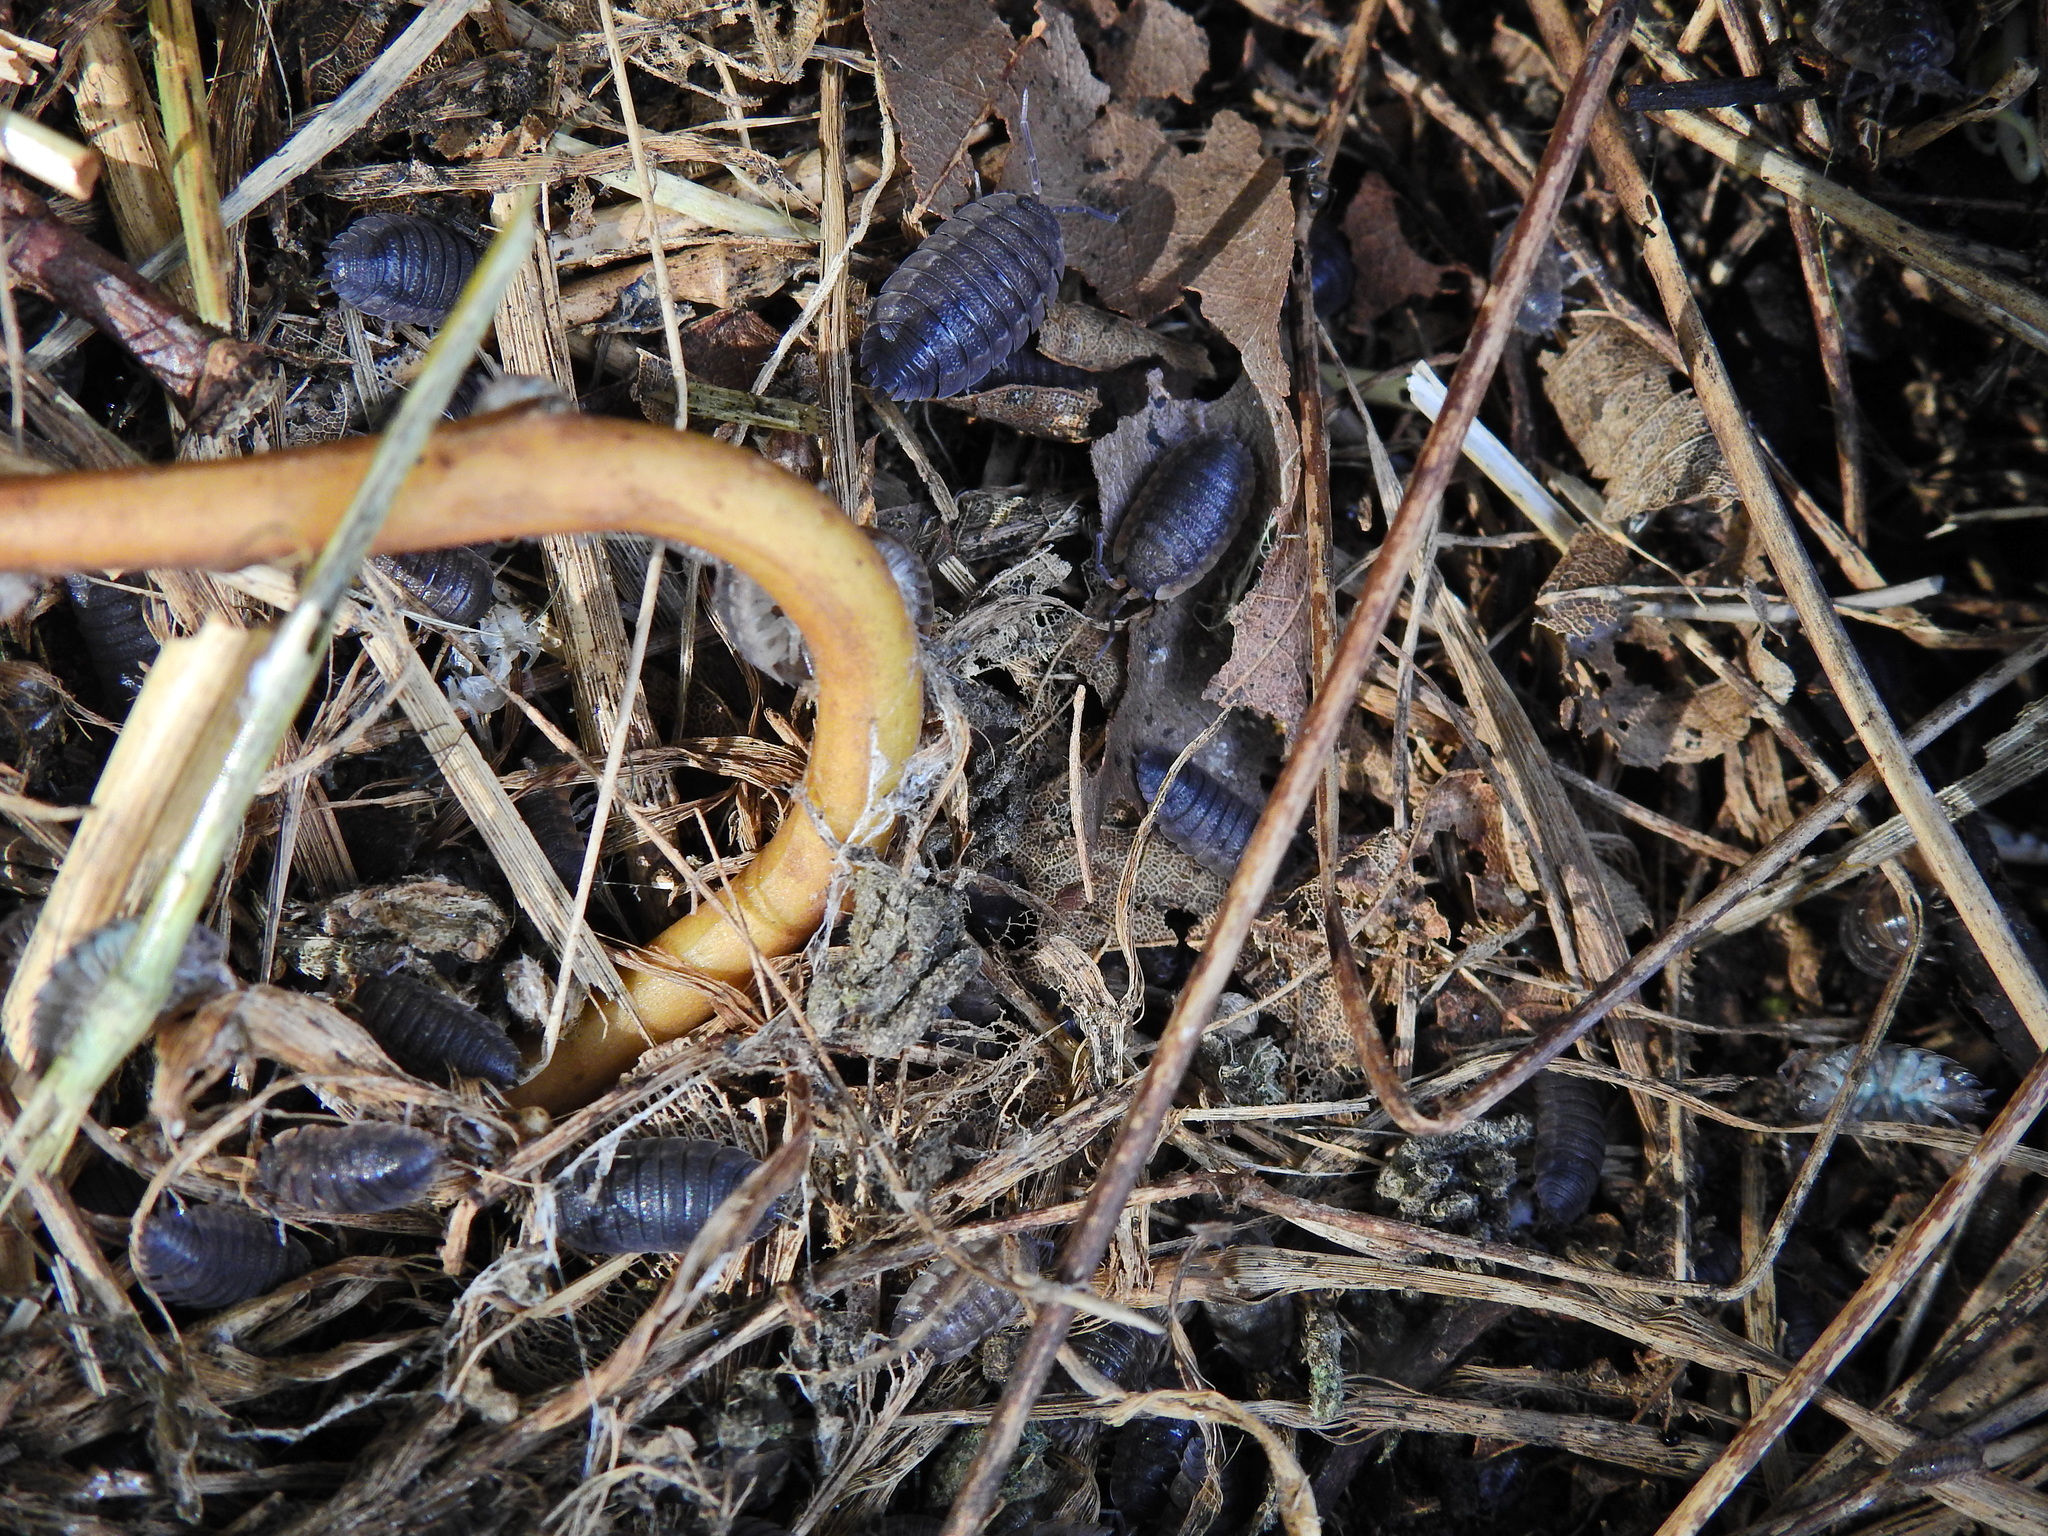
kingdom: Animalia
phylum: Arthropoda
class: Malacostraca
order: Isopoda
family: Porcellionidae
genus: Porcellio
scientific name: Porcellio scaber
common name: Common rough woodlouse
